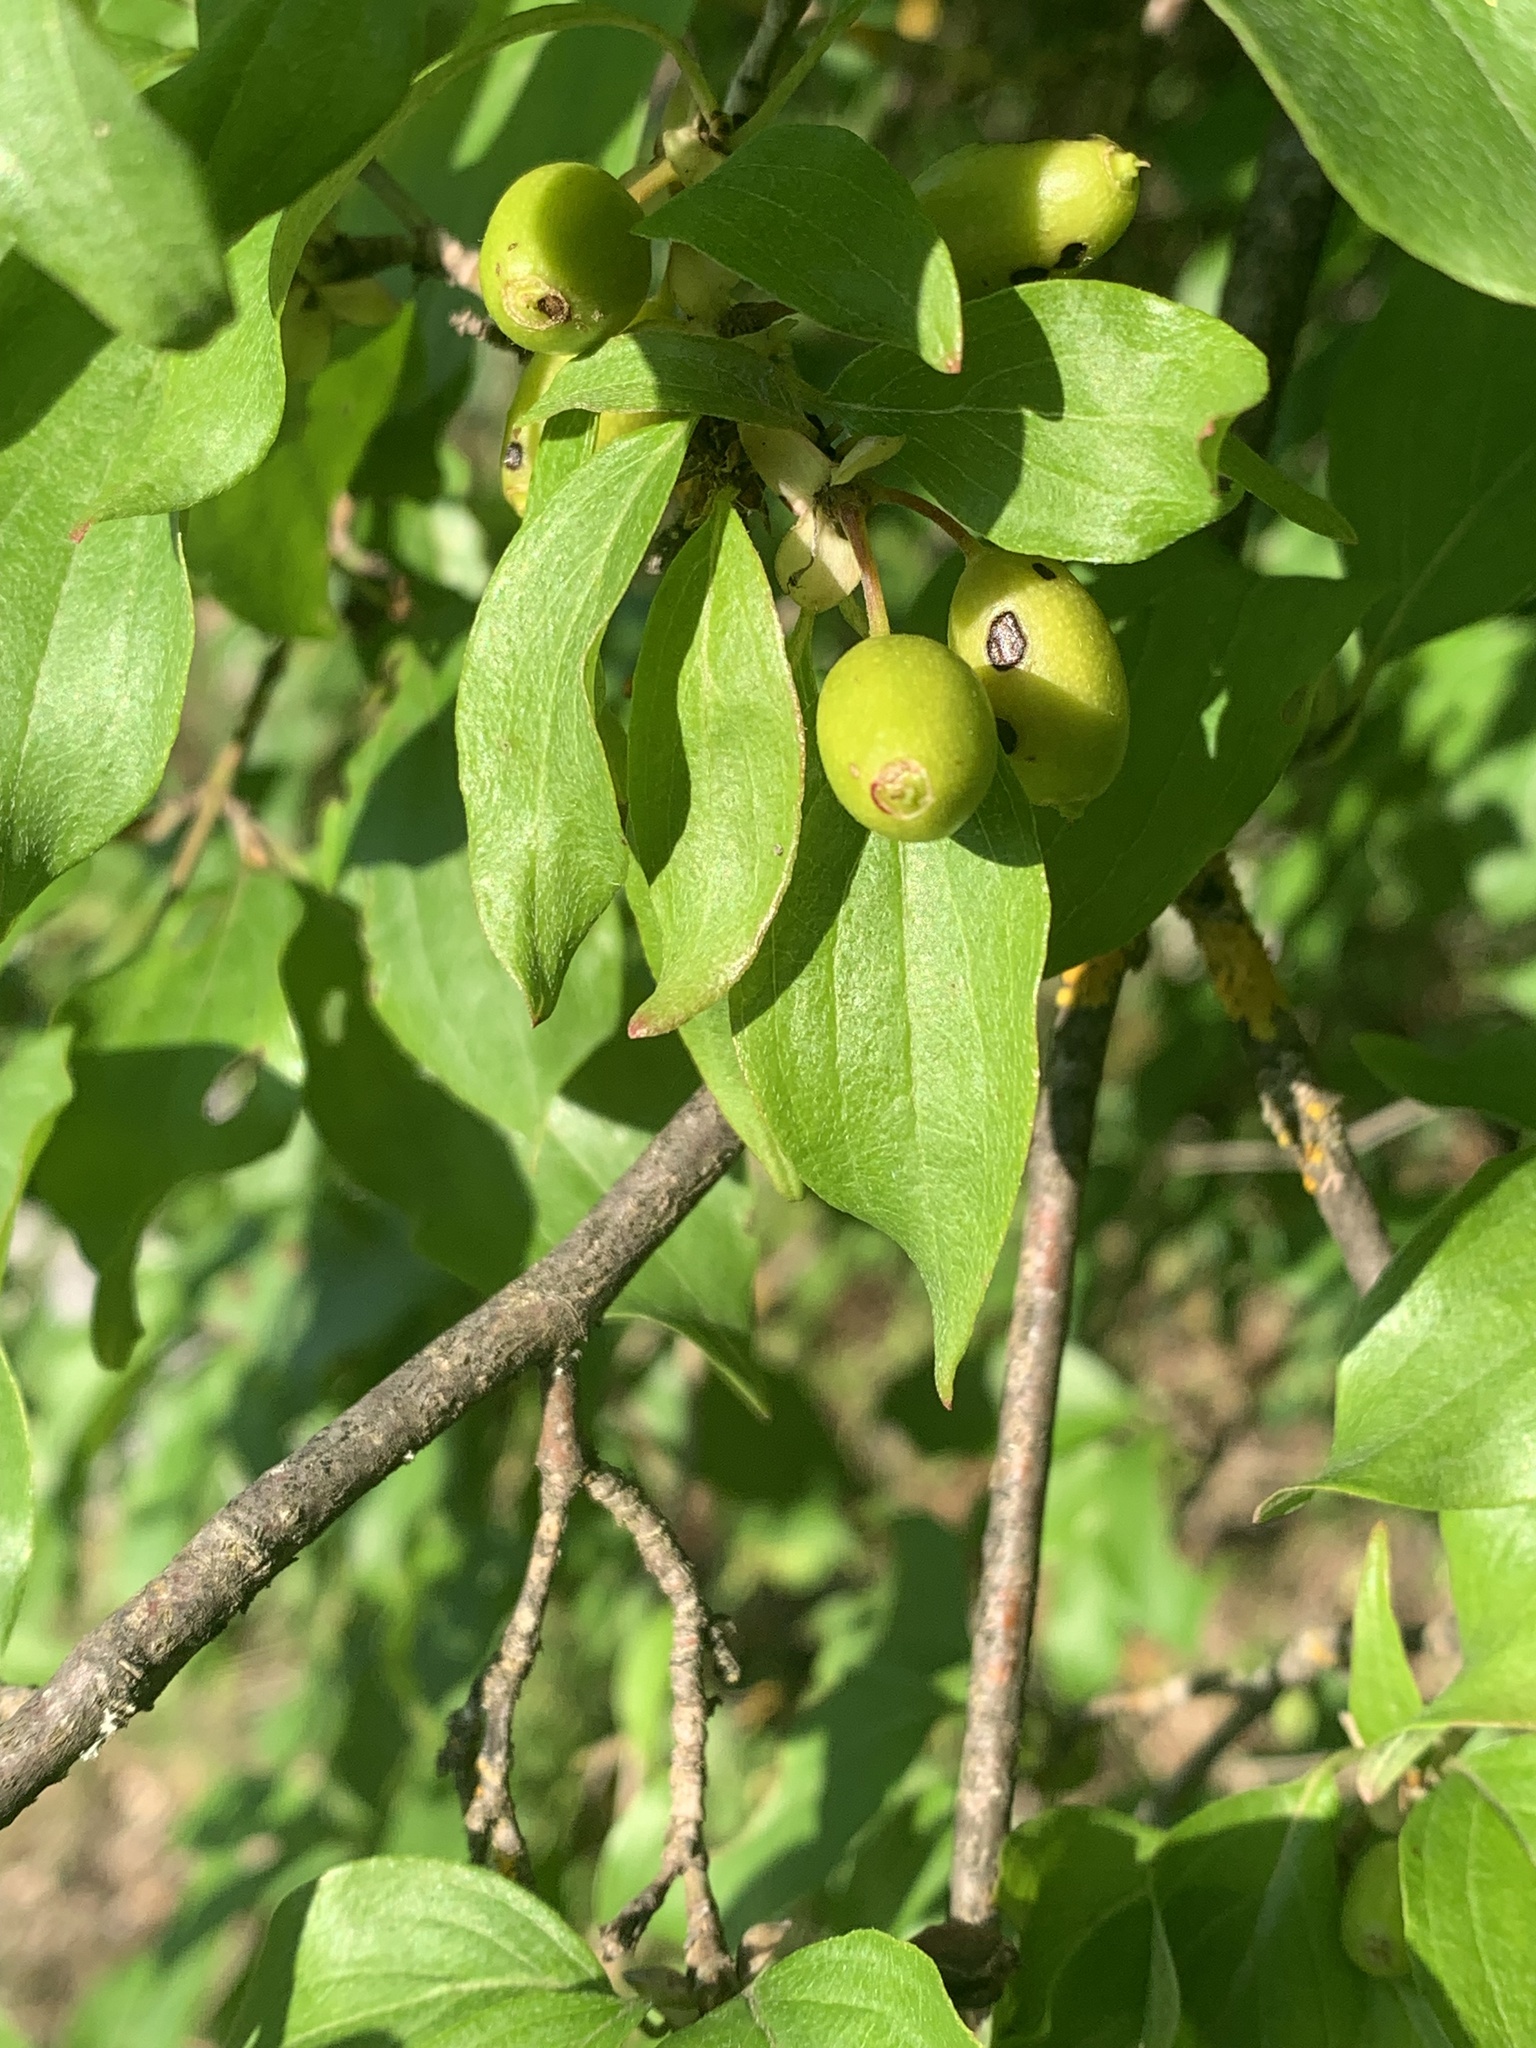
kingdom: Plantae
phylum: Tracheophyta
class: Magnoliopsida
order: Cornales
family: Cornaceae
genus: Cornus
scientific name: Cornus mas
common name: Cornelian-cherry
